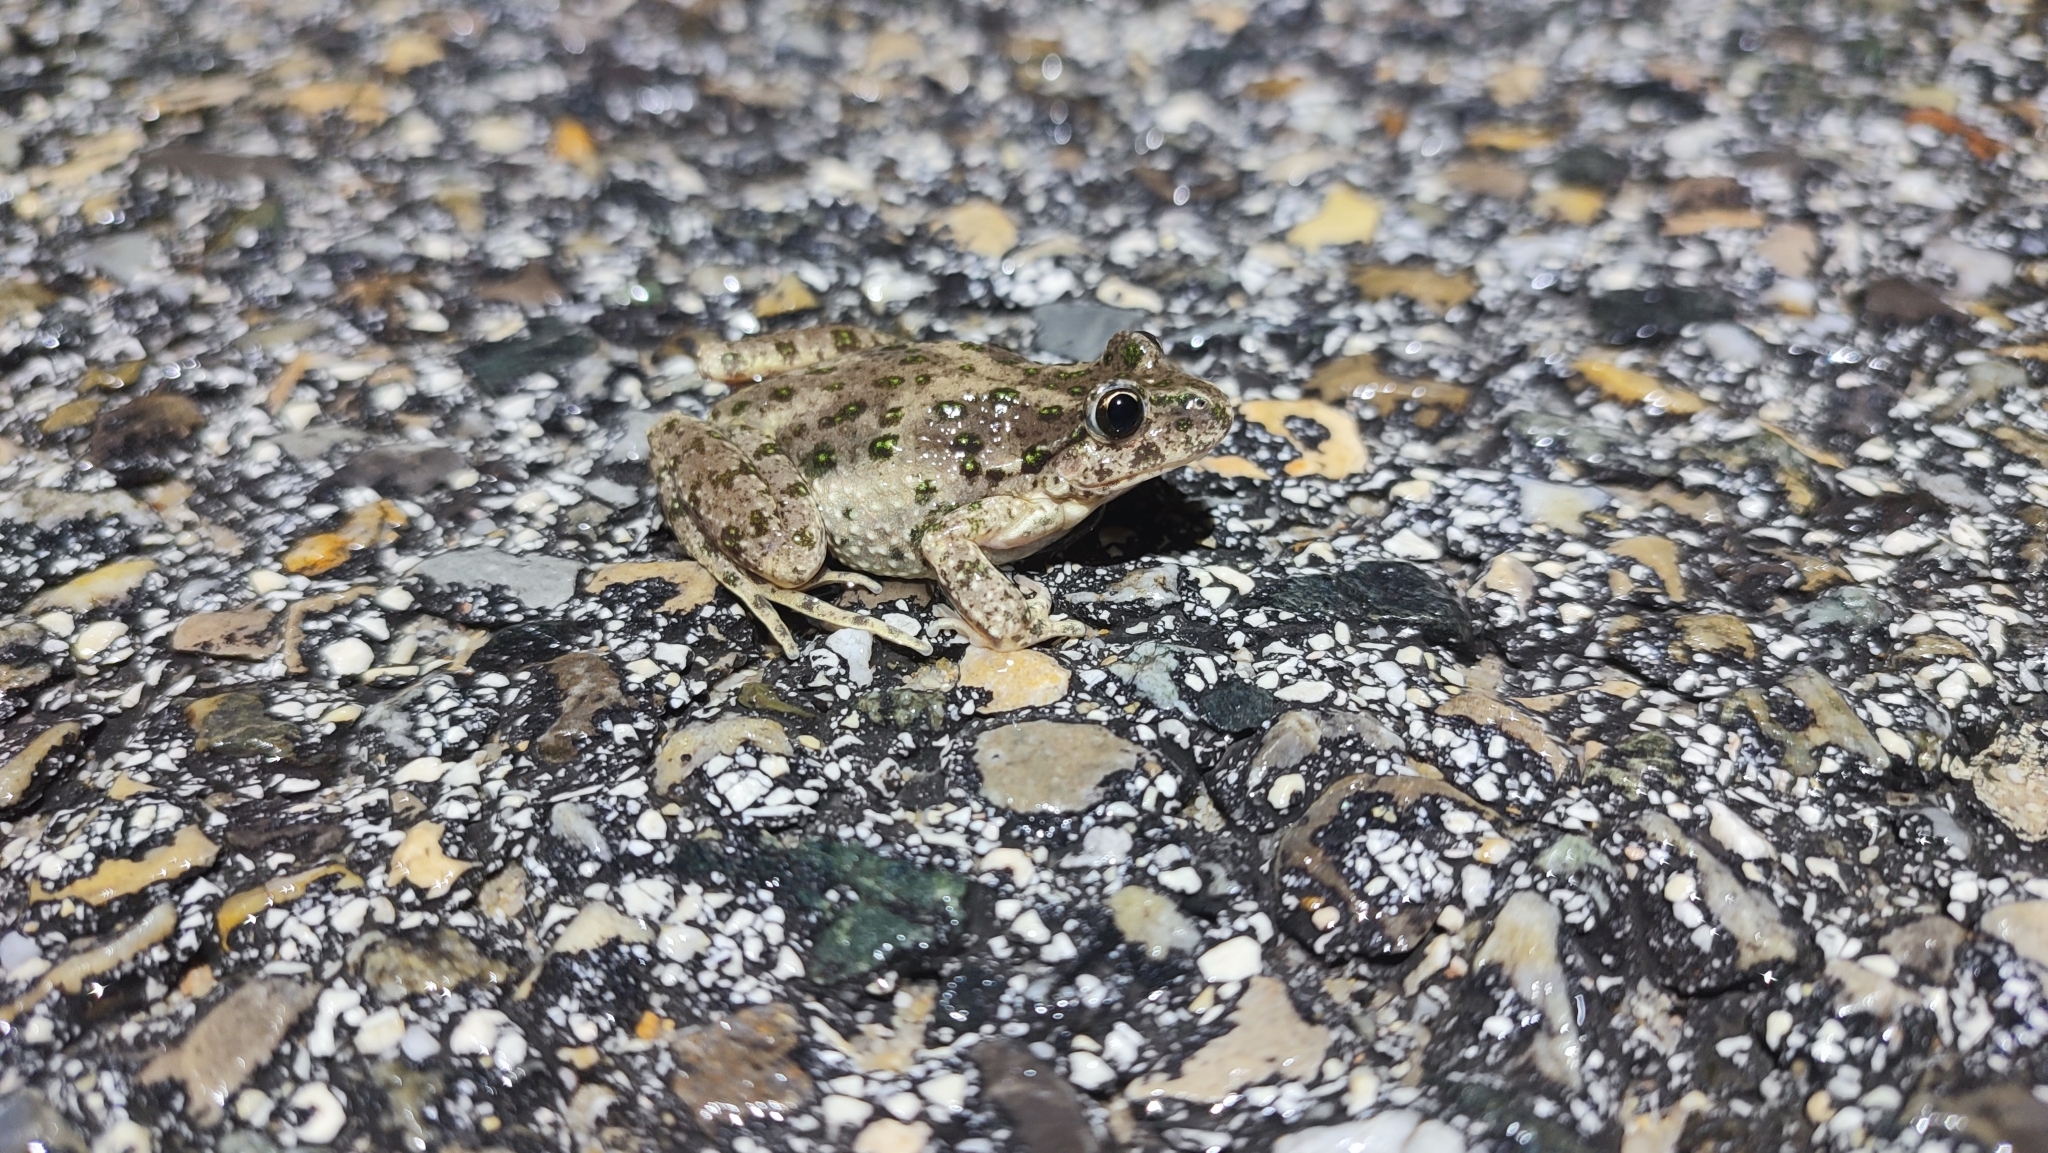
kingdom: Animalia
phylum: Chordata
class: Amphibia
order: Anura
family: Pelodytidae
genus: Pelodytes
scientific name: Pelodytes punctatus
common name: Parsley frog
